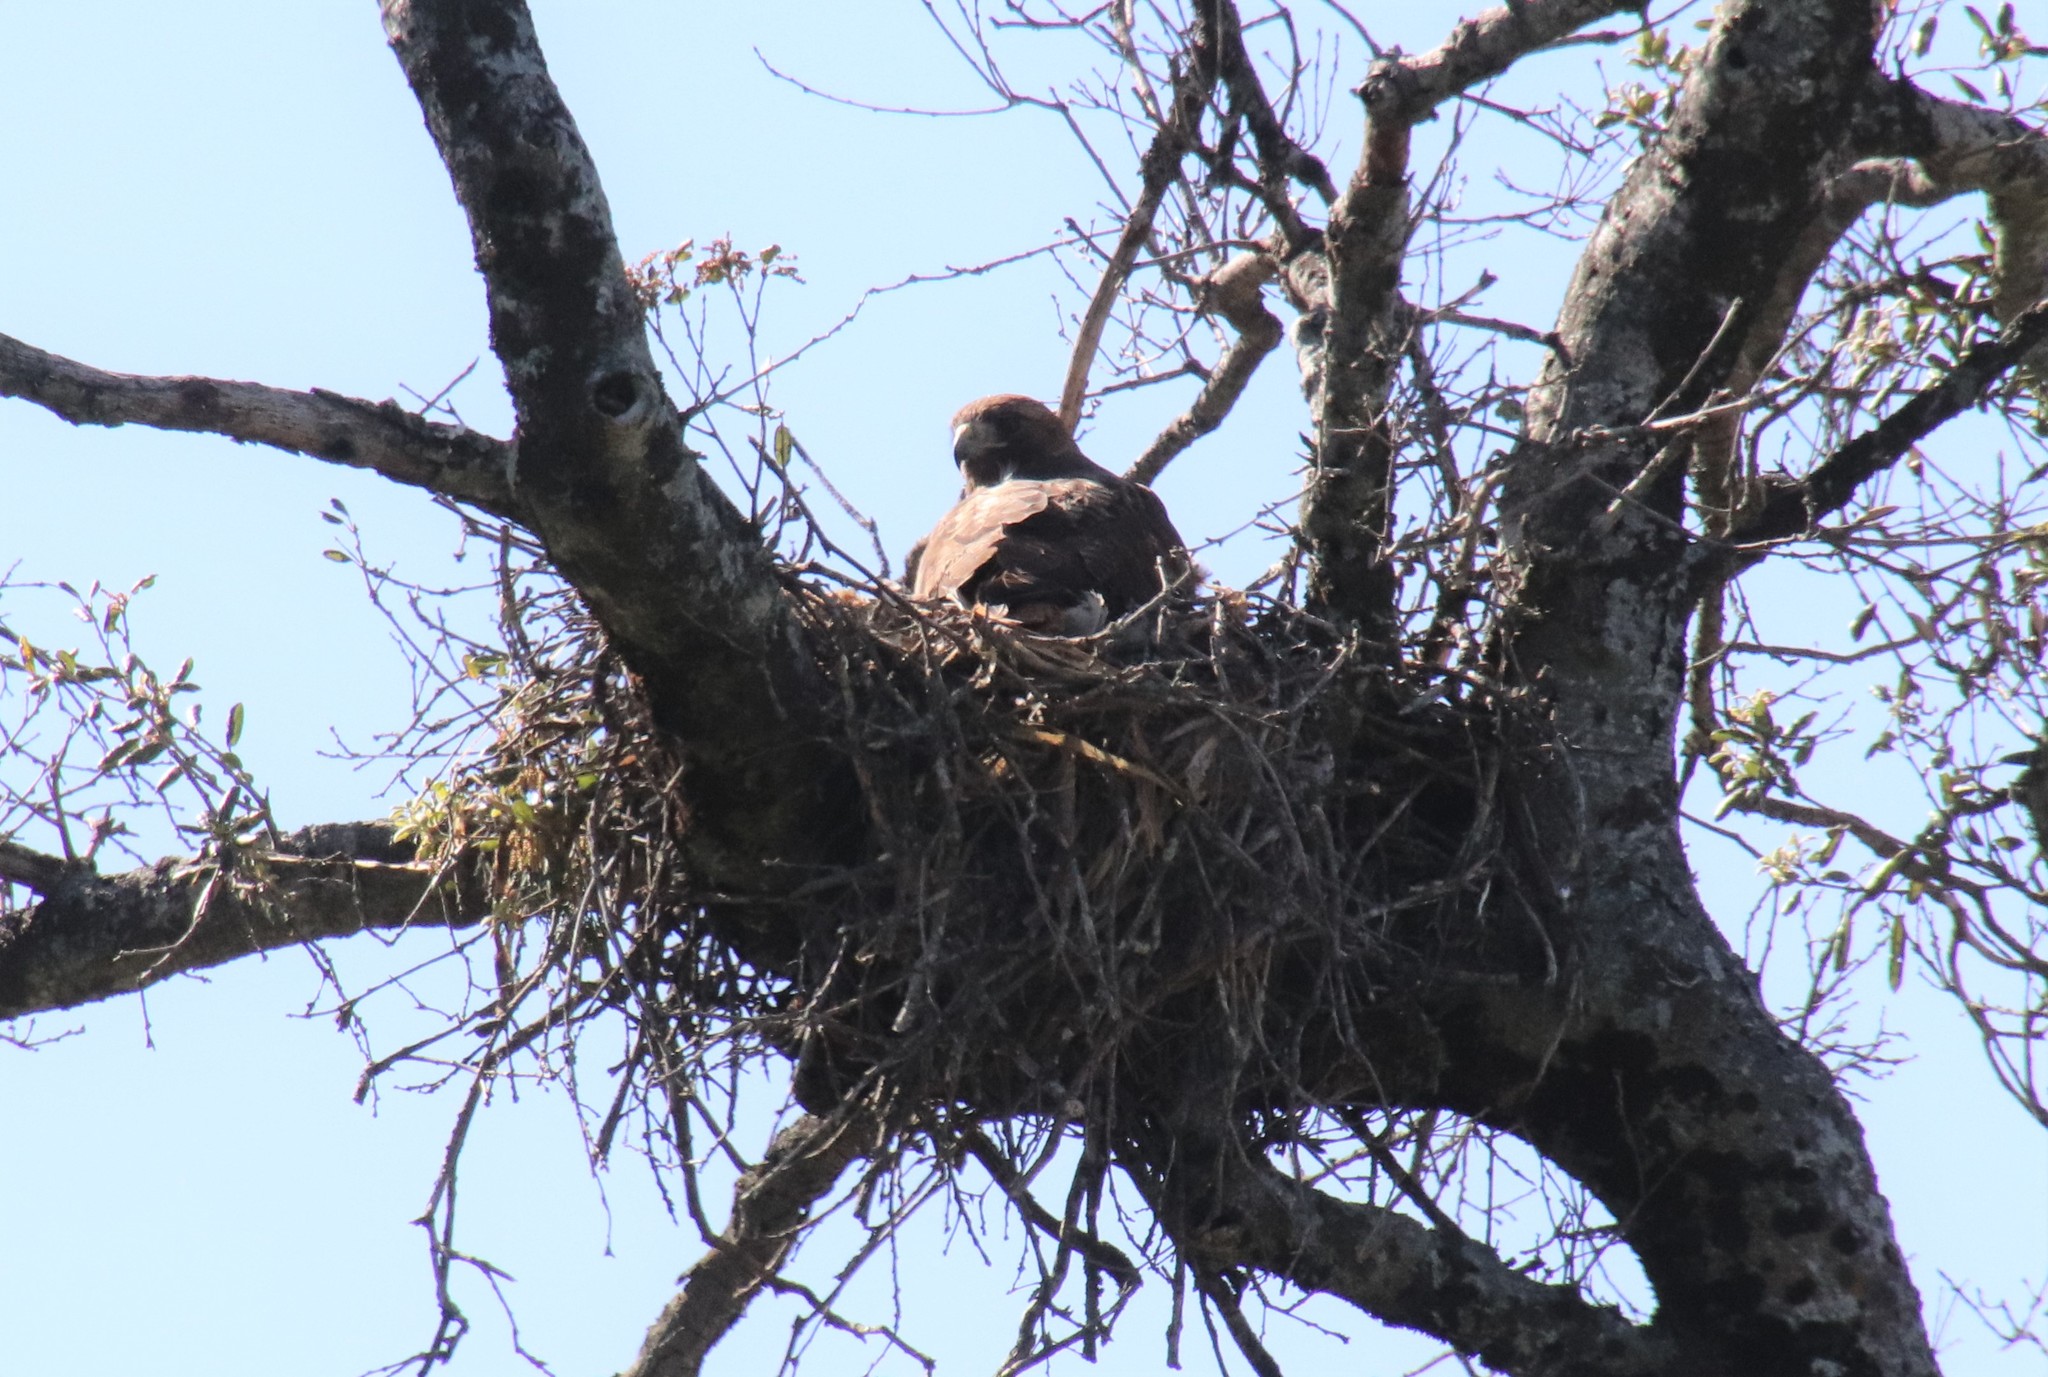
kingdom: Animalia
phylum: Chordata
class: Aves
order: Accipitriformes
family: Accipitridae
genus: Buteo
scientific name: Buteo jamaicensis
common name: Red-tailed hawk
